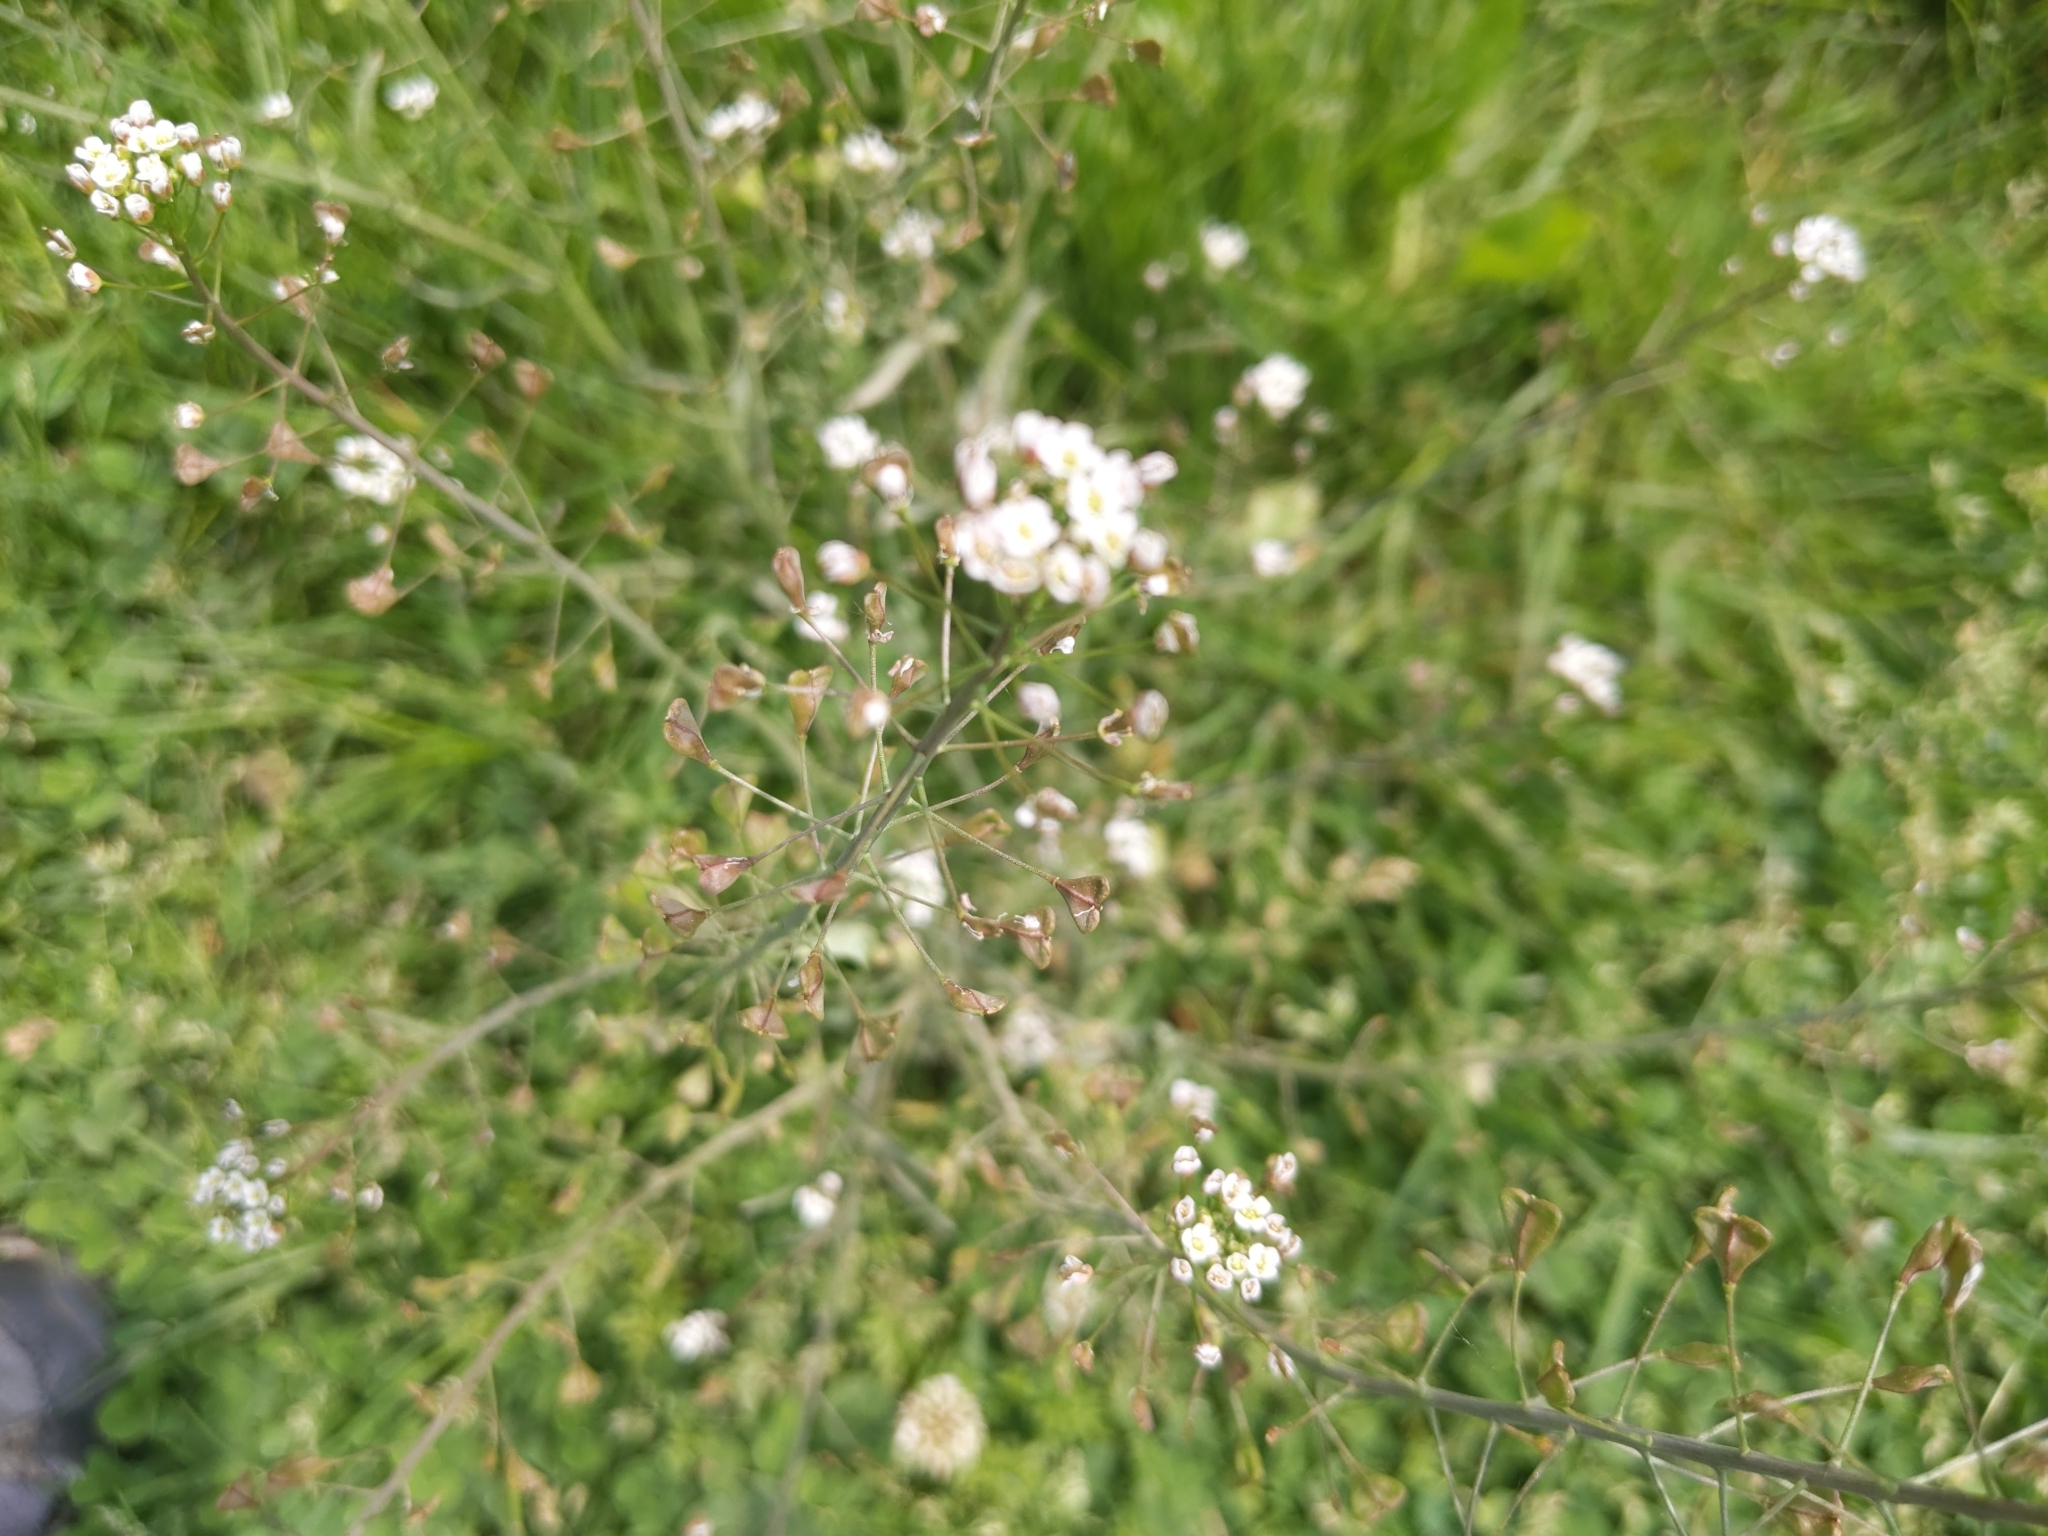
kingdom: Plantae
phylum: Tracheophyta
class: Magnoliopsida
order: Brassicales
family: Brassicaceae
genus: Capsella
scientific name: Capsella bursa-pastoris
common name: Shepherd's purse
